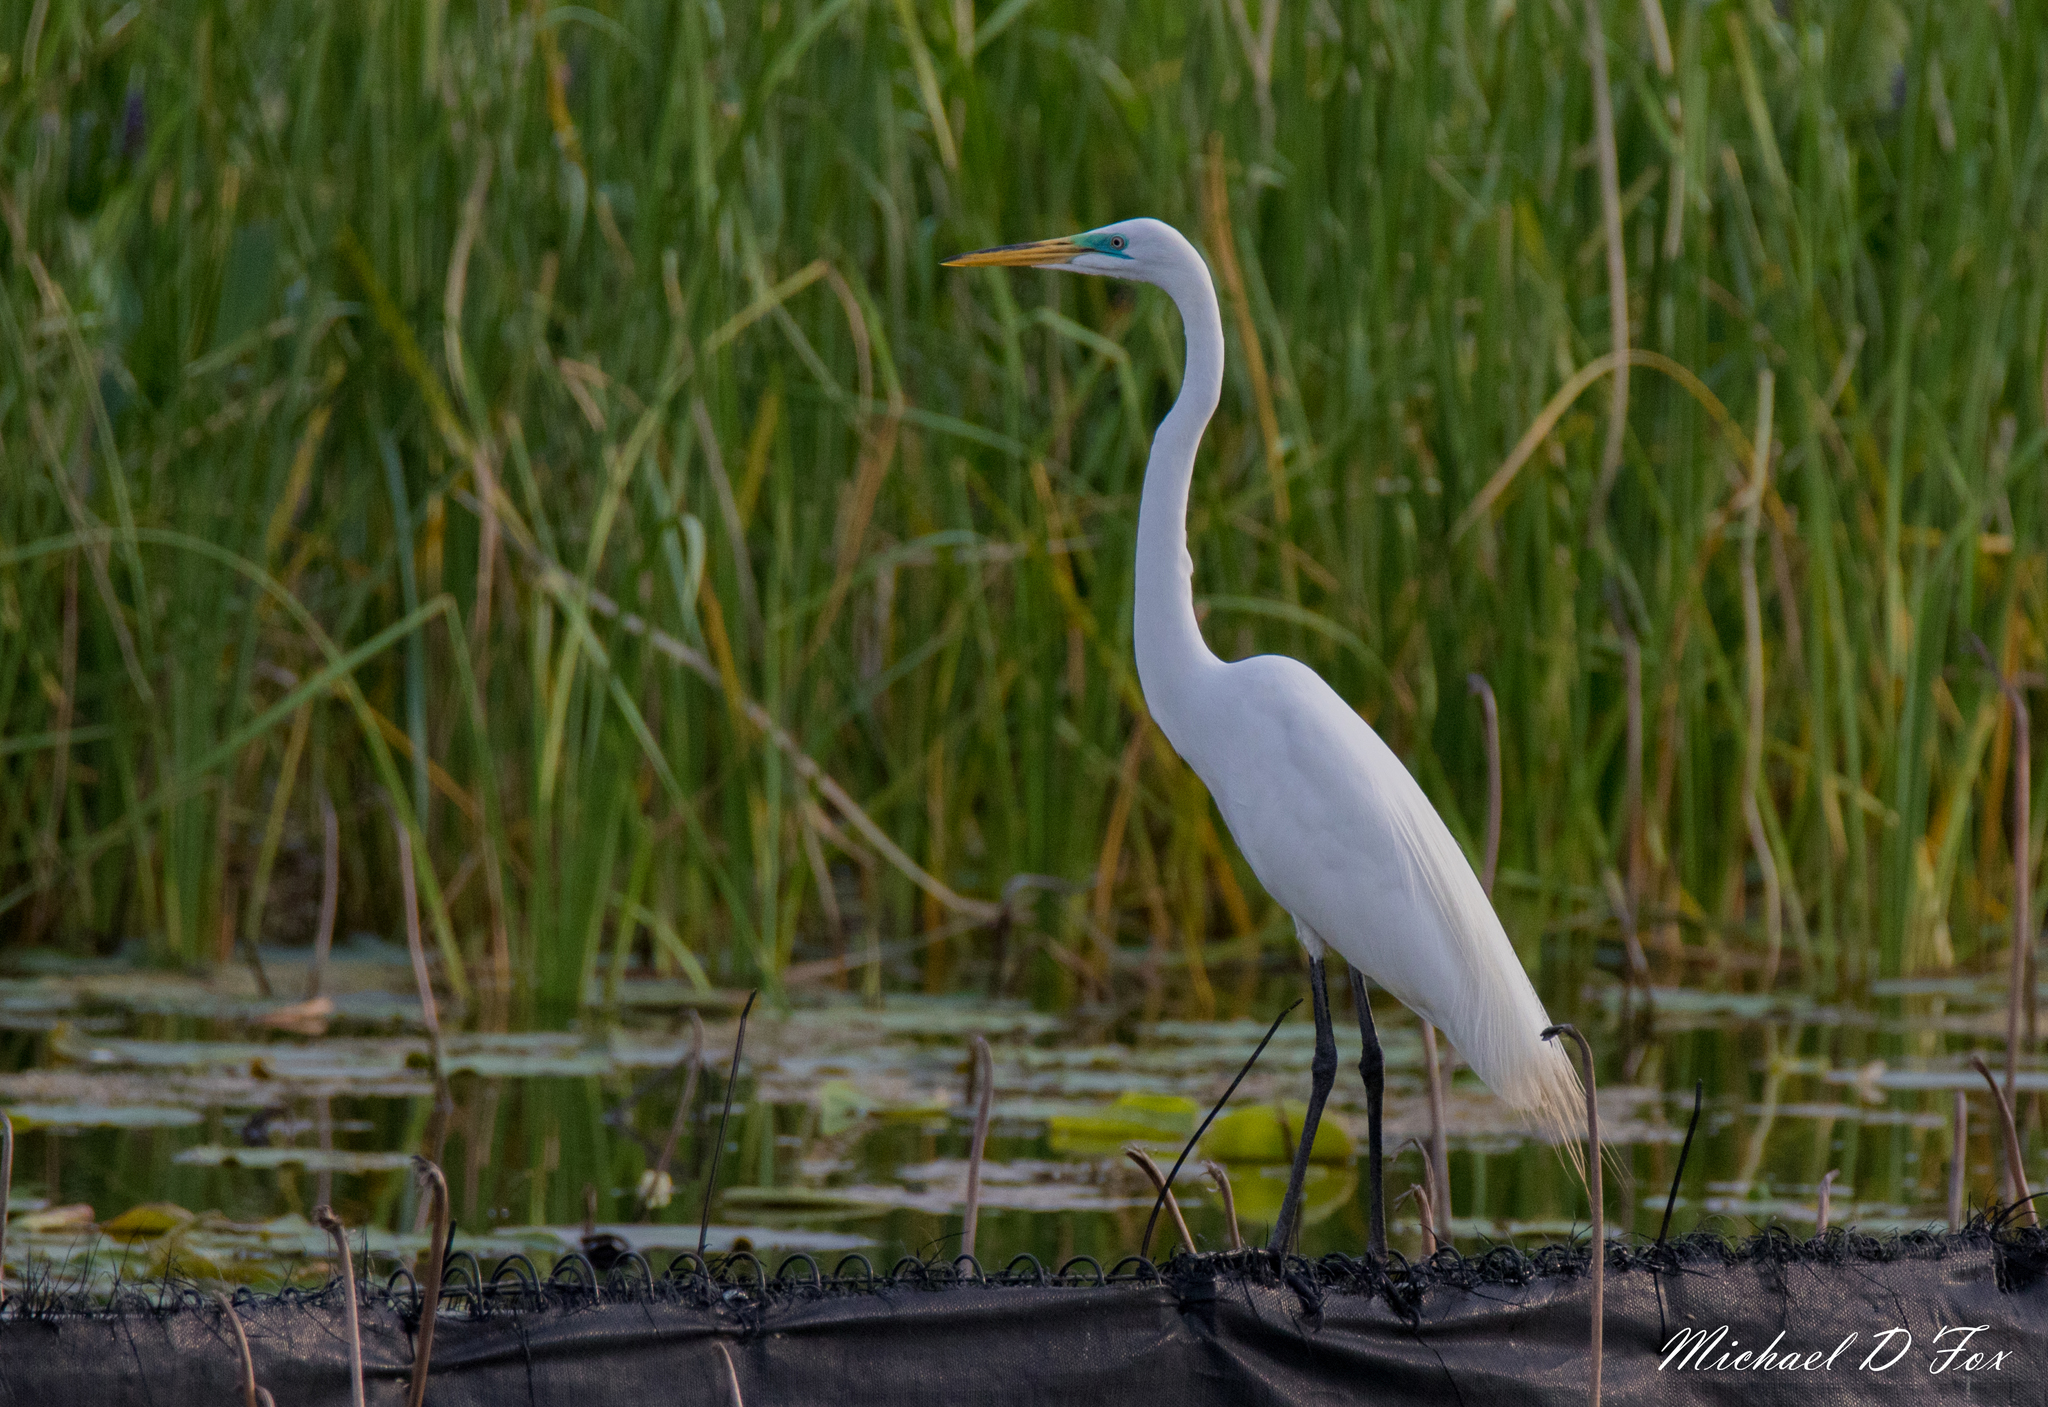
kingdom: Animalia
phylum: Chordata
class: Aves
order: Pelecaniformes
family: Ardeidae
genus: Ardea
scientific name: Ardea alba
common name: Great egret
